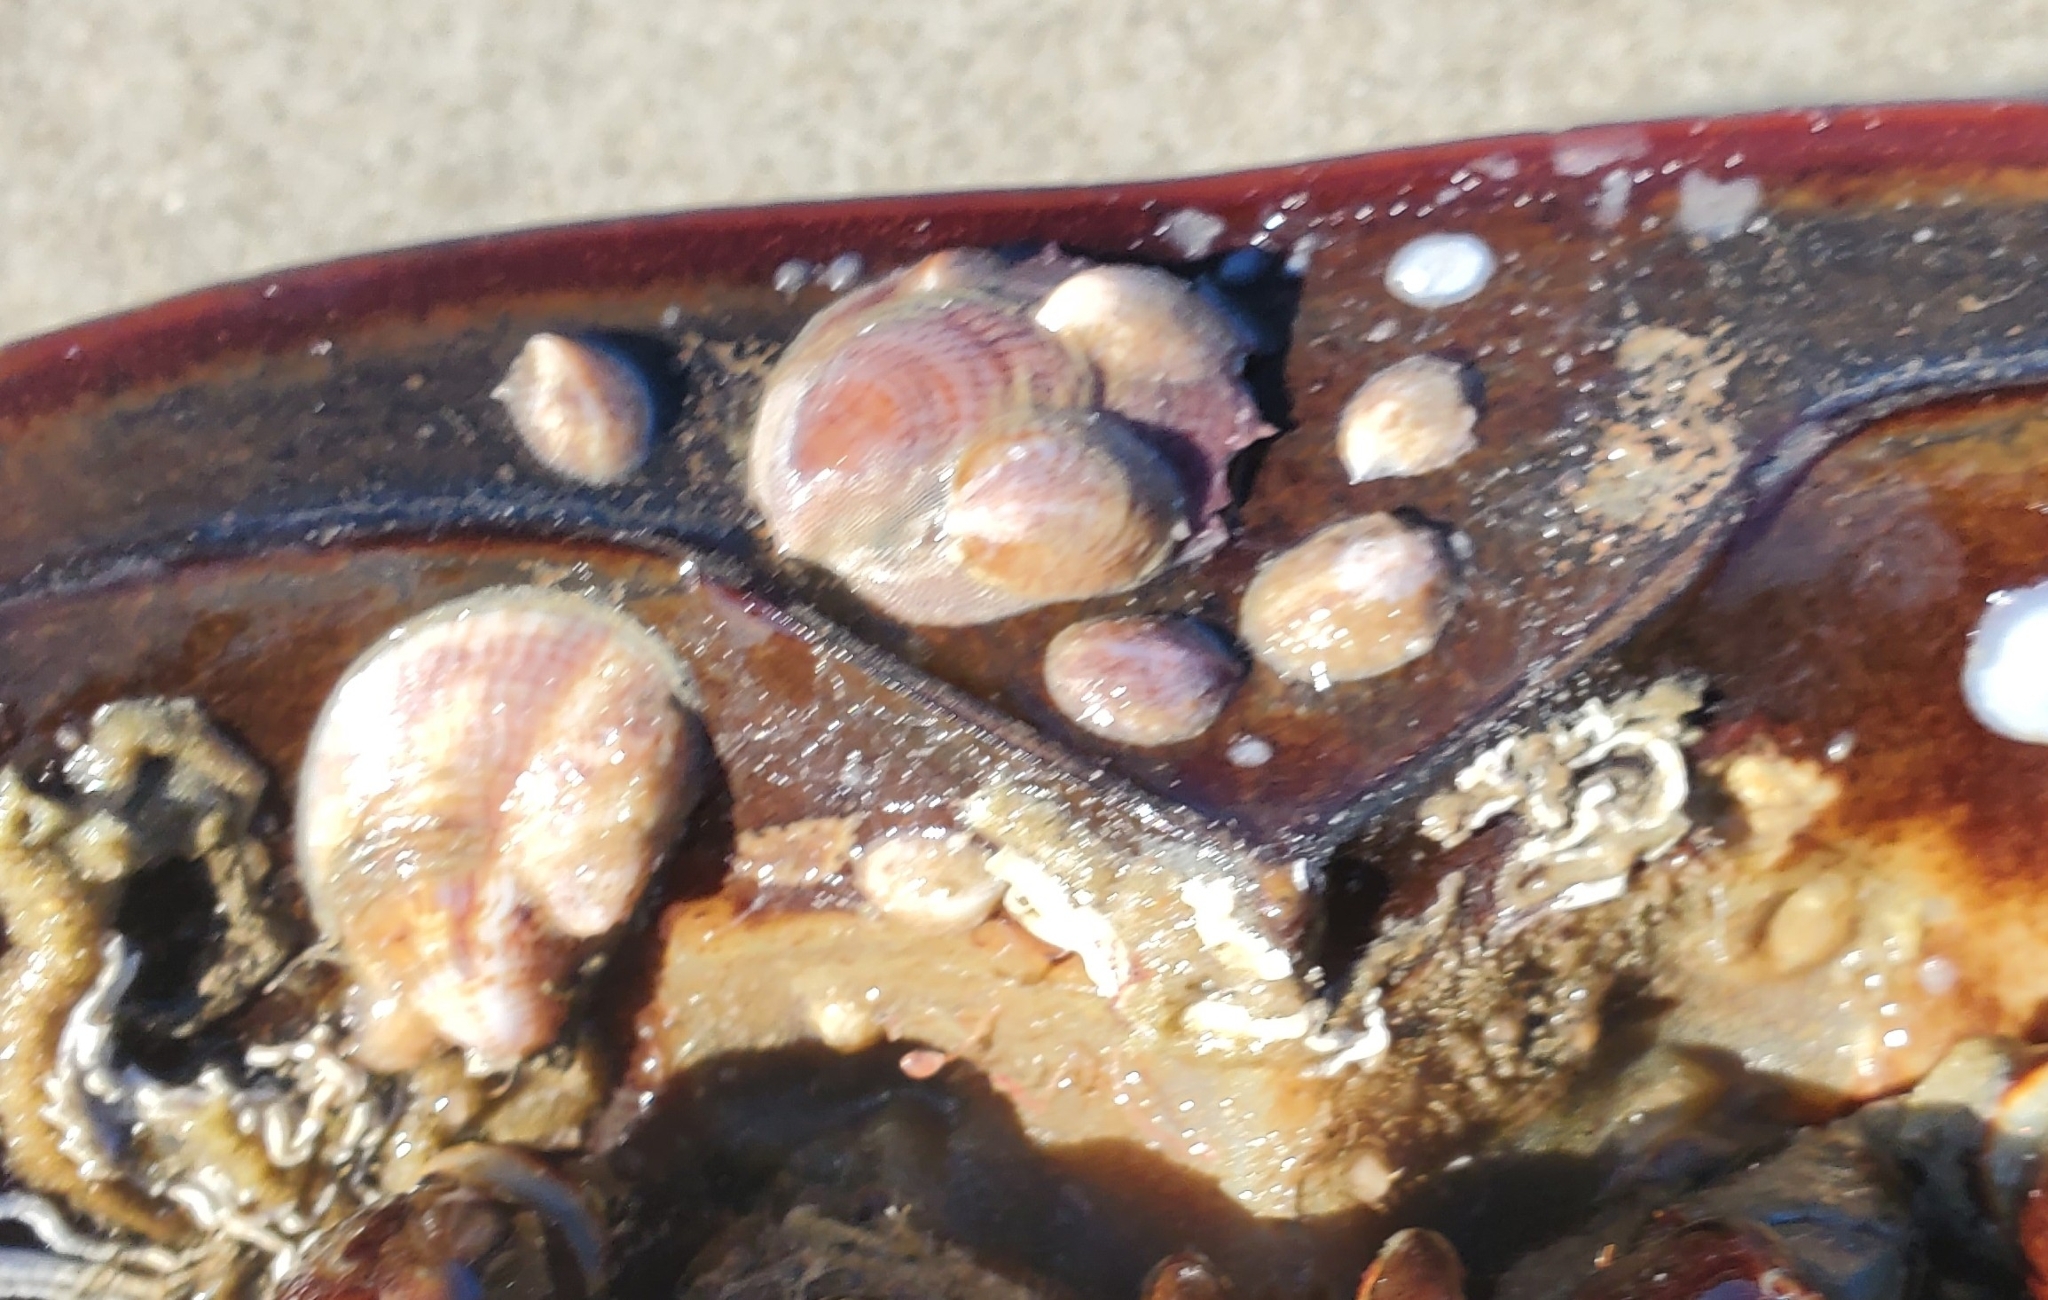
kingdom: Animalia
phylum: Mollusca
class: Gastropoda
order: Littorinimorpha
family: Calyptraeidae
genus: Crepidula
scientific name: Crepidula fornicata
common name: Slipper limpet
